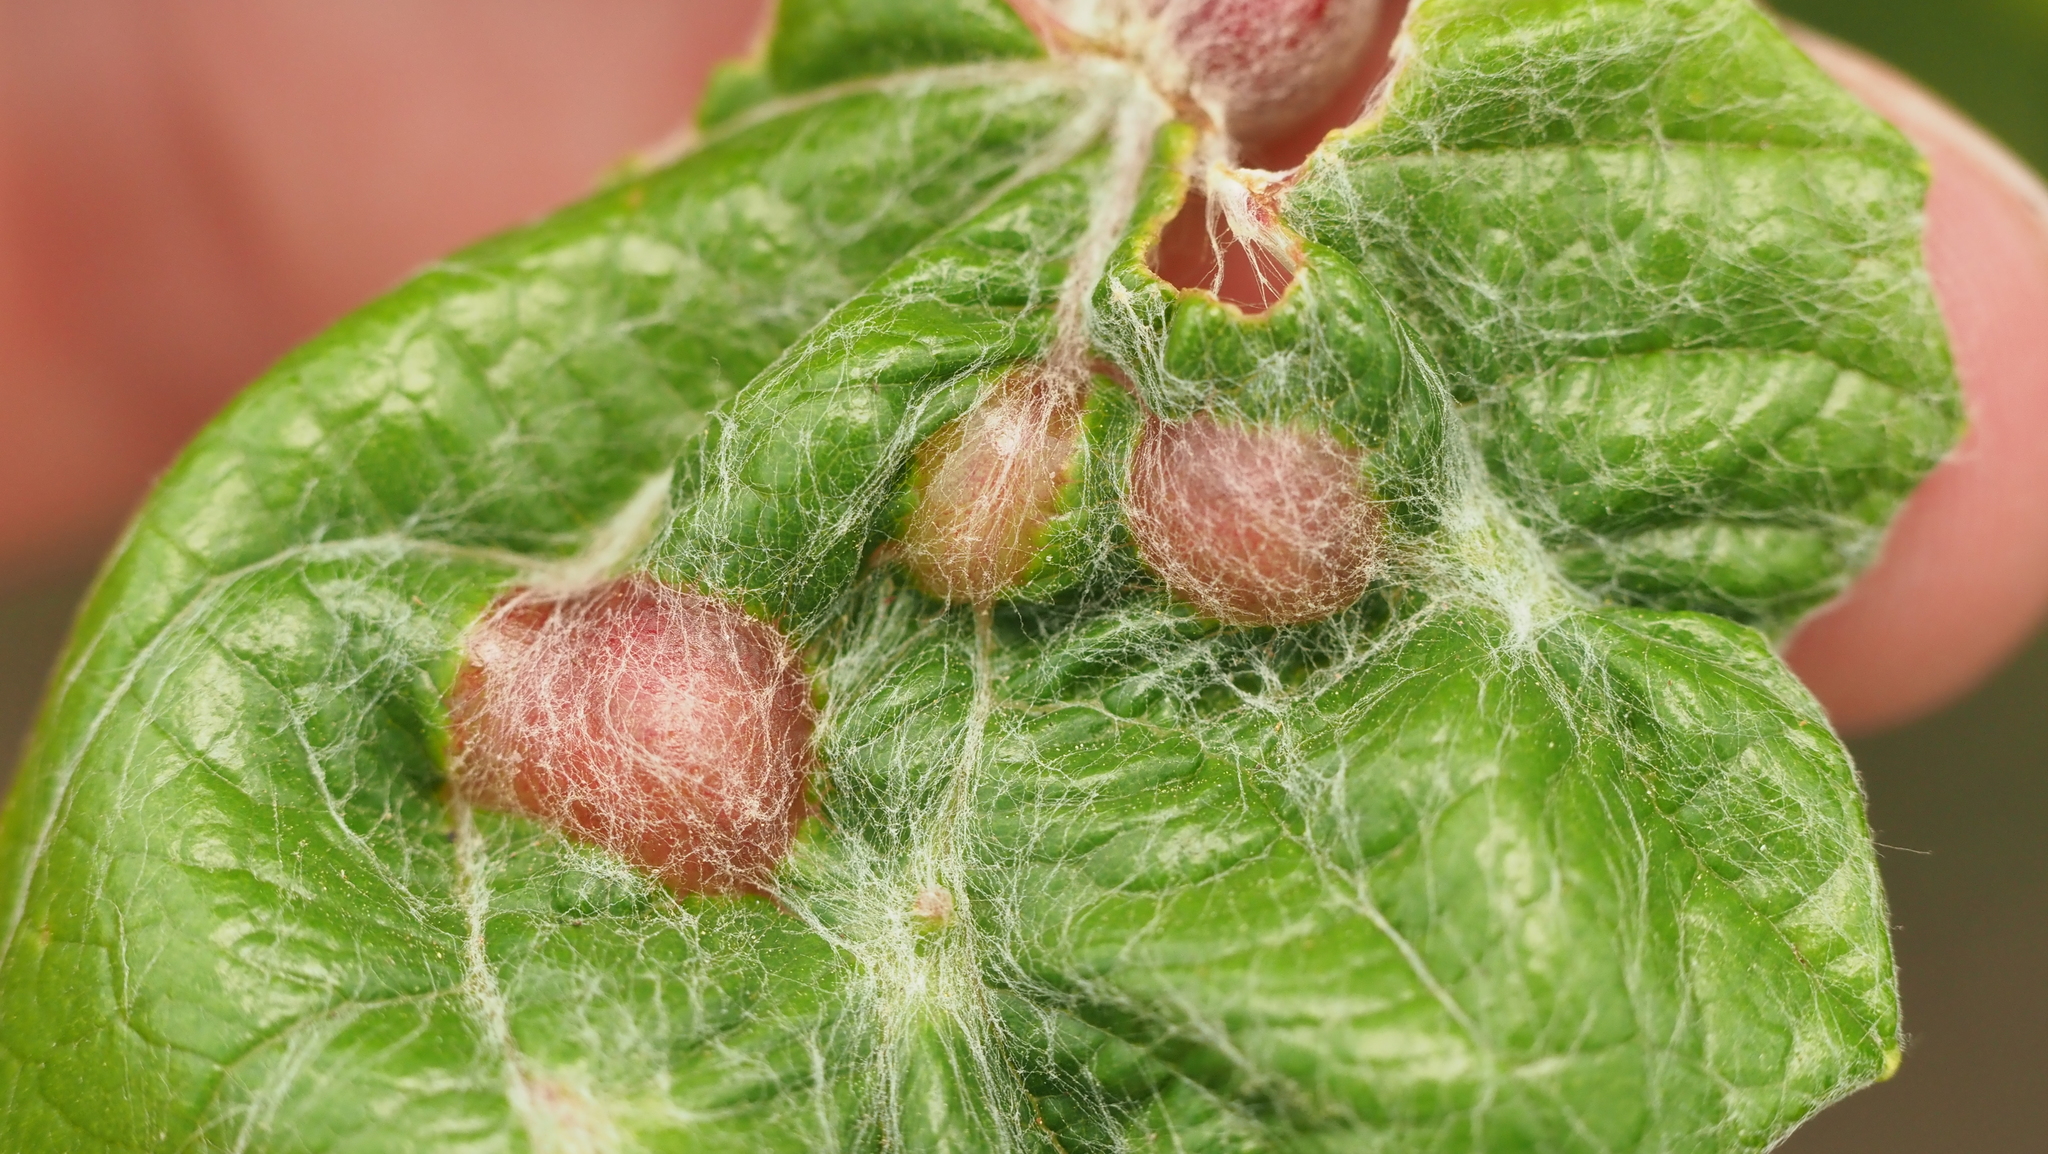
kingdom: Animalia
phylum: Arthropoda
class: Insecta
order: Diptera
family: Cecidomyiidae
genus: Vitisiella
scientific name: Vitisiella brevicauda
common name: Grape tumid gallmaker midge
